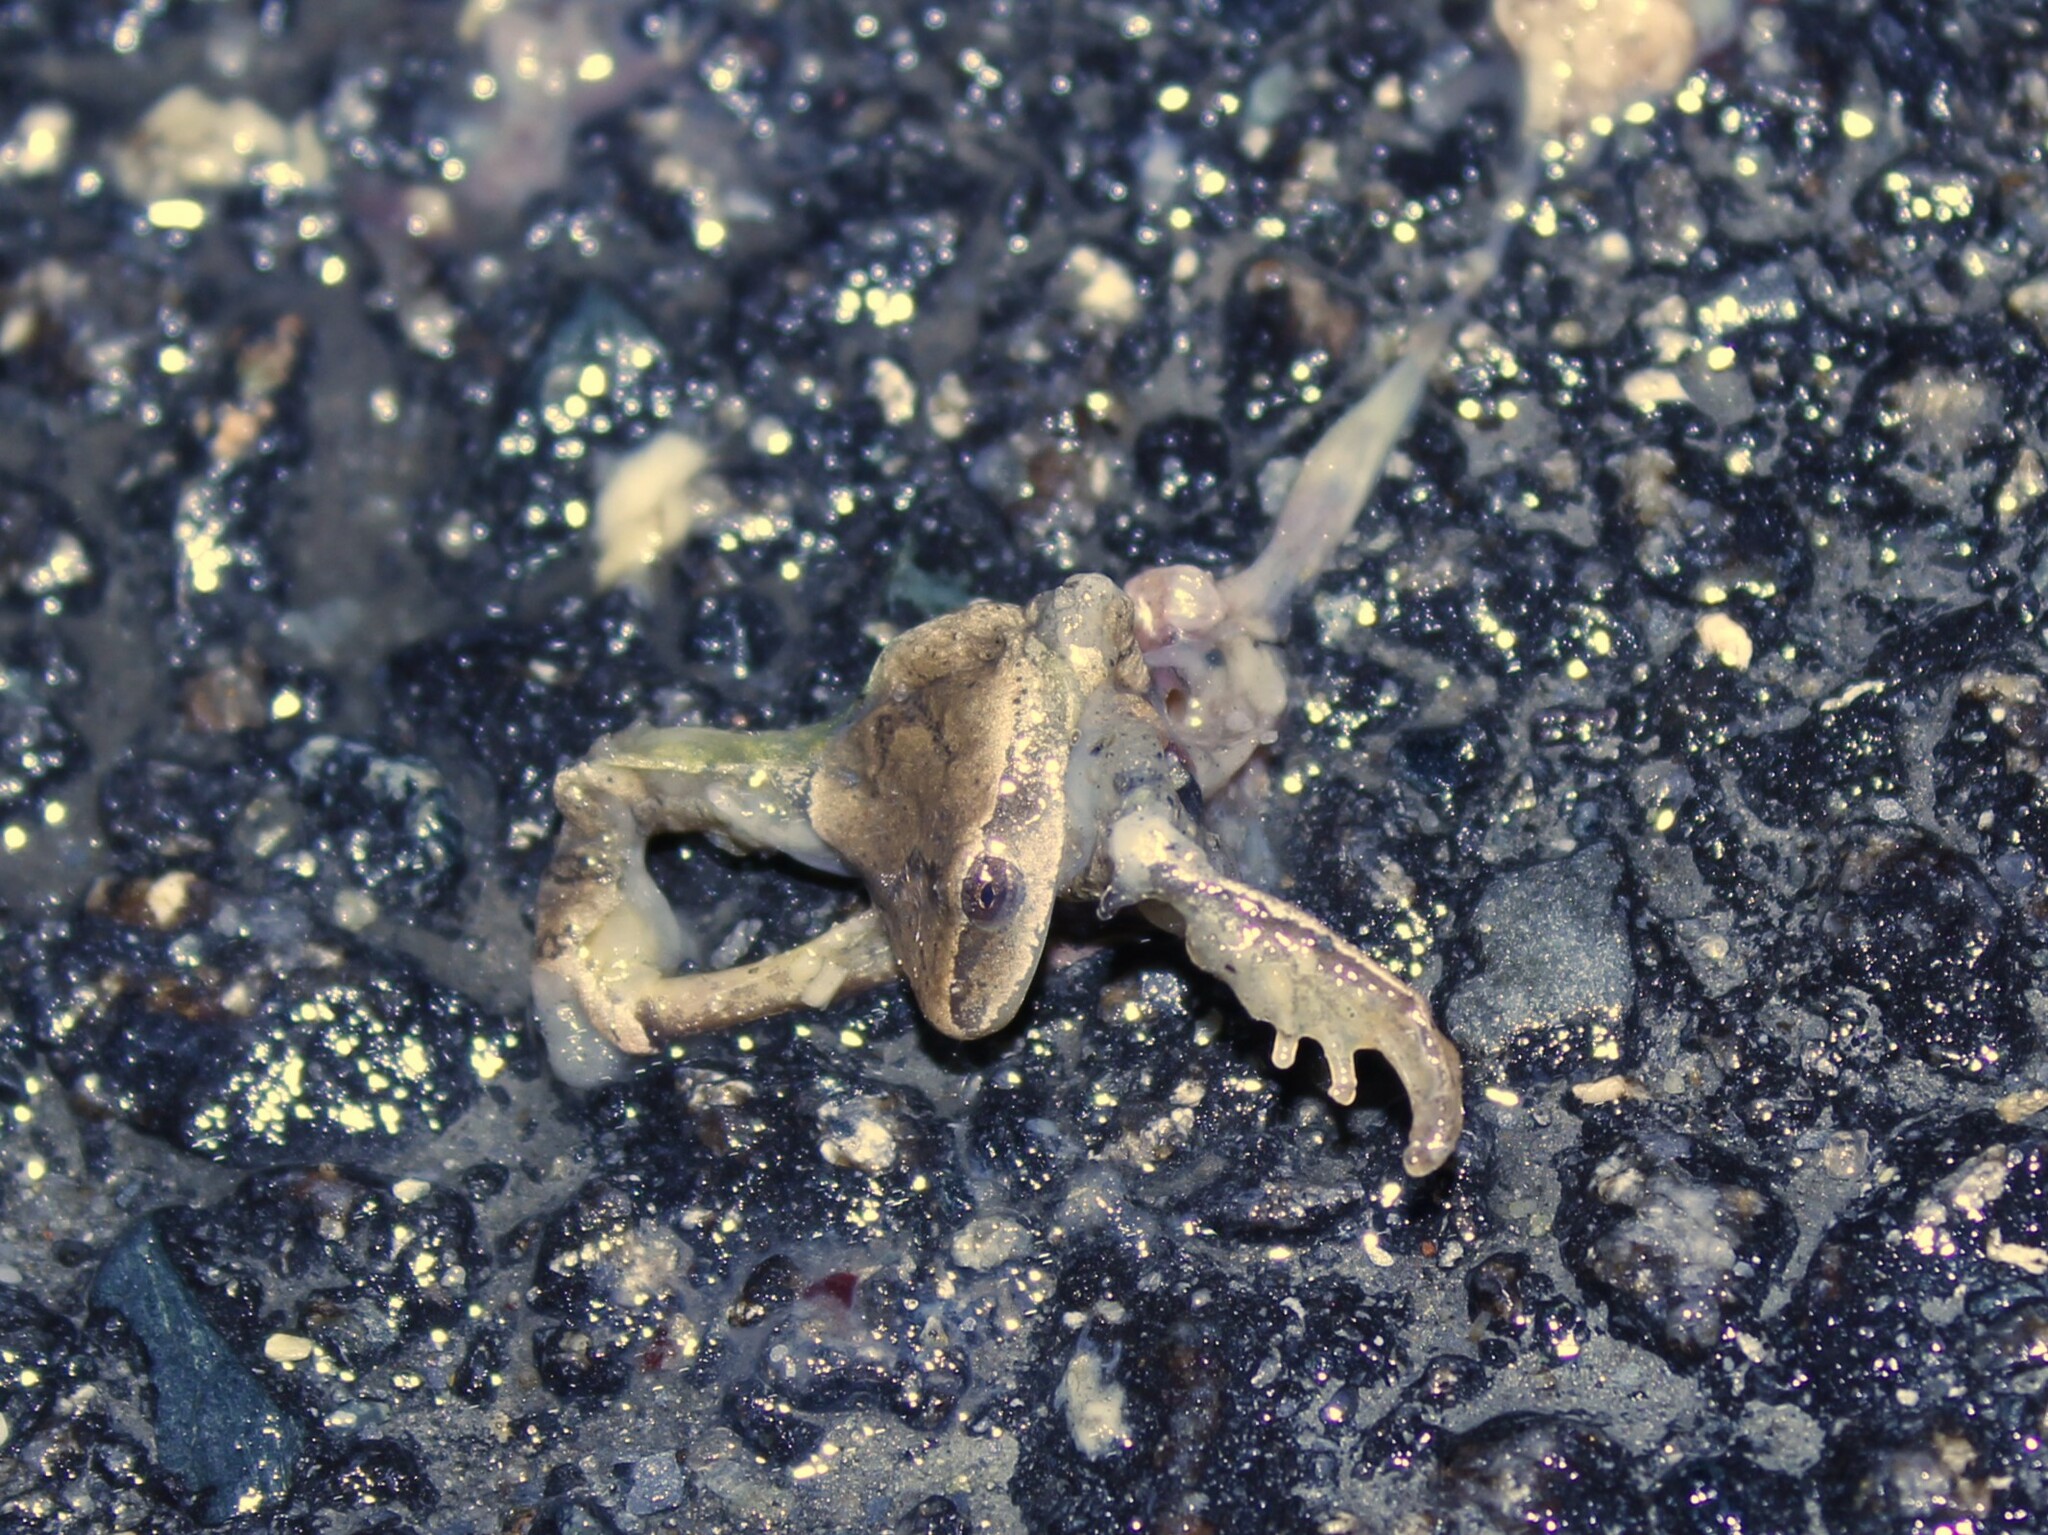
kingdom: Animalia
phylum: Chordata
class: Amphibia
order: Anura
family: Hylidae
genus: Pseudacris
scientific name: Pseudacris crucifer
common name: Spring peeper
